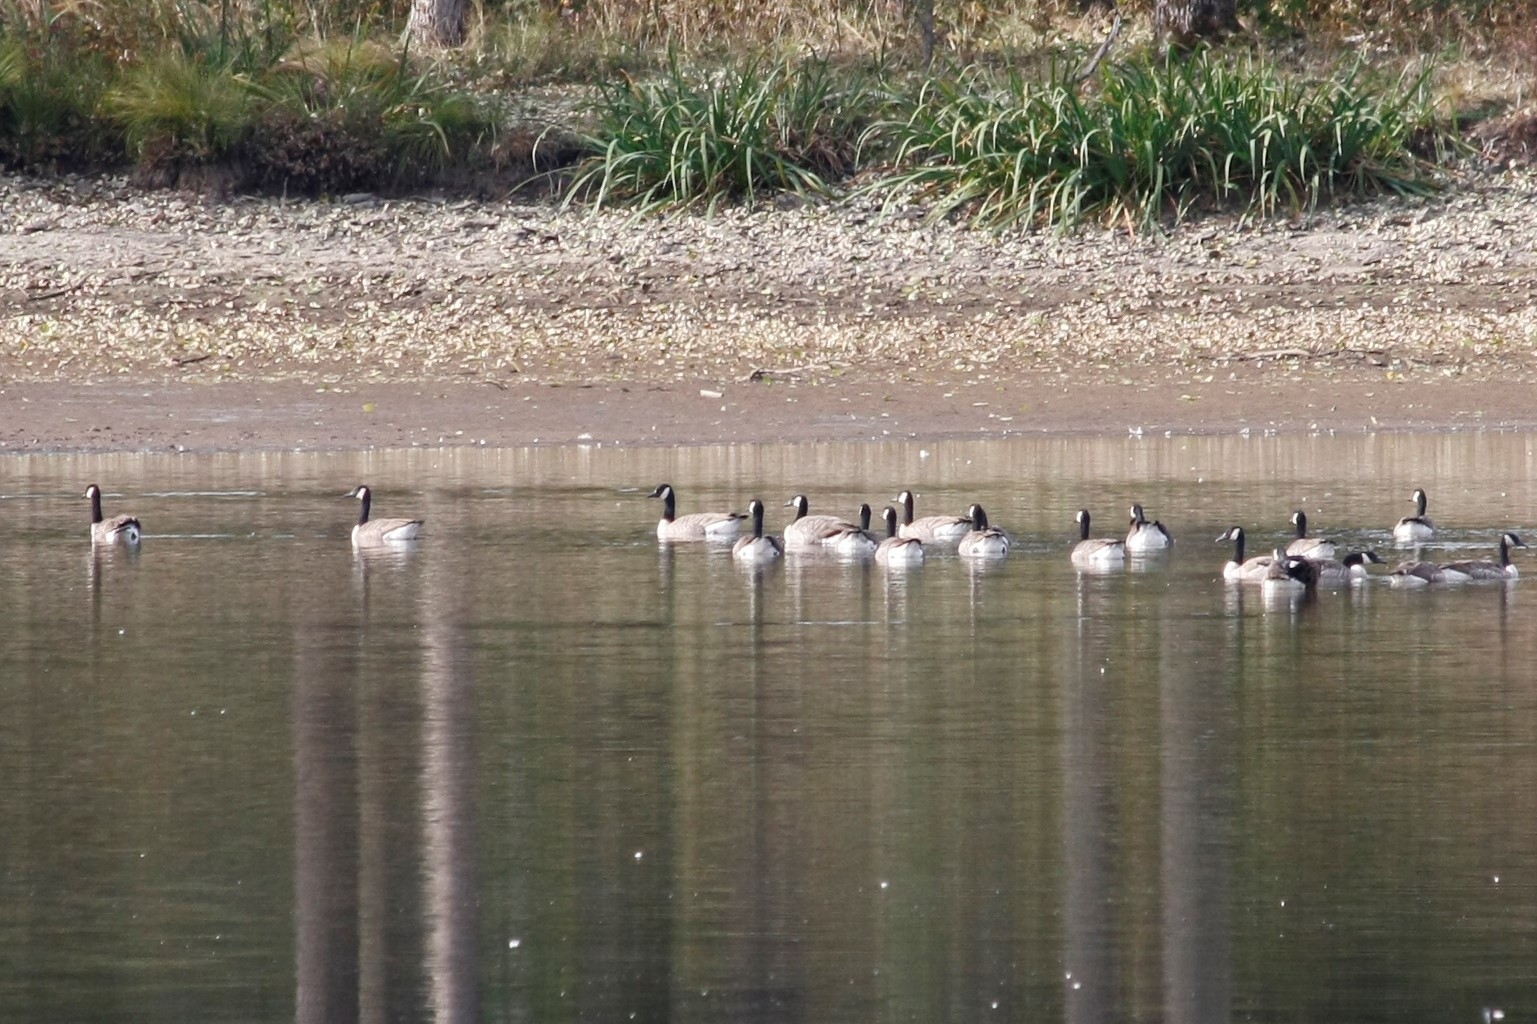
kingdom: Animalia
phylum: Chordata
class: Aves
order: Anseriformes
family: Anatidae
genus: Branta
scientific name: Branta canadensis
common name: Canada goose
